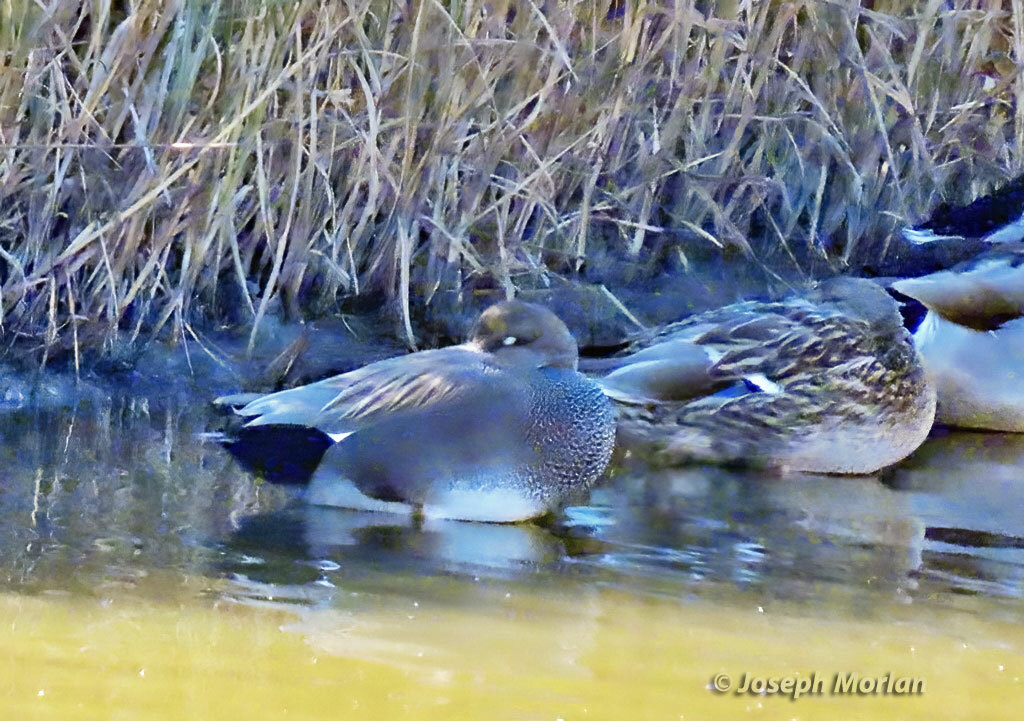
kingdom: Animalia
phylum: Chordata
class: Aves
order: Anseriformes
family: Anatidae
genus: Mareca
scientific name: Mareca strepera
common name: Gadwall
